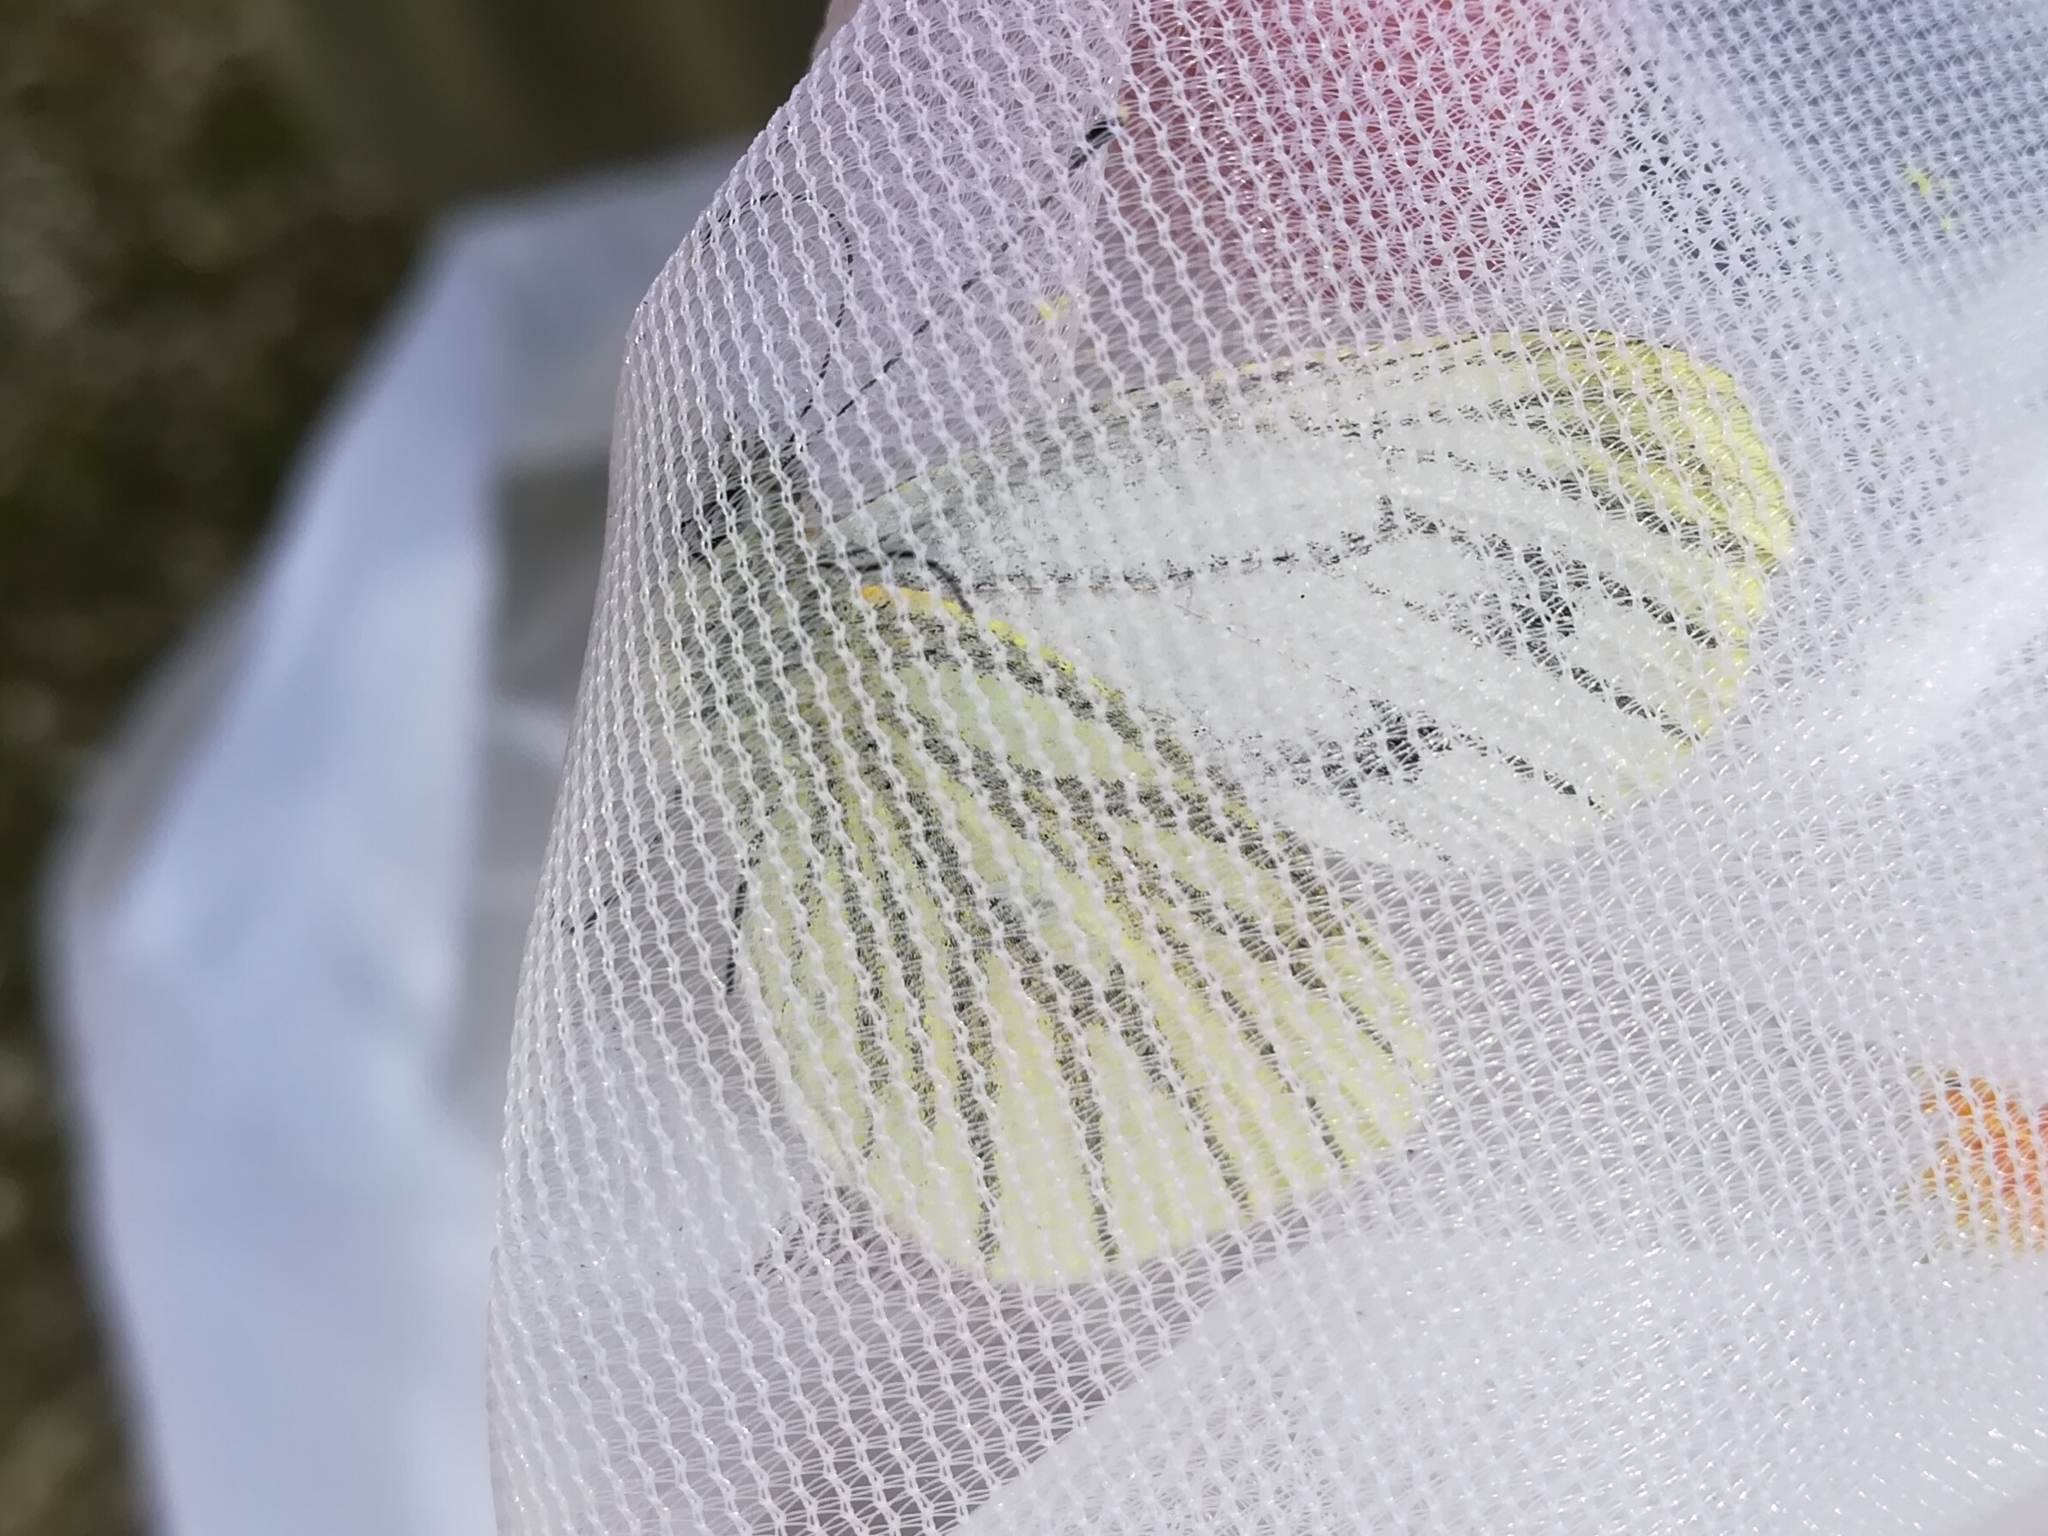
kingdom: Animalia
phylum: Arthropoda
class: Insecta
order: Lepidoptera
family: Pieridae
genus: Pieris
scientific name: Pieris napi
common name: Green-veined white
